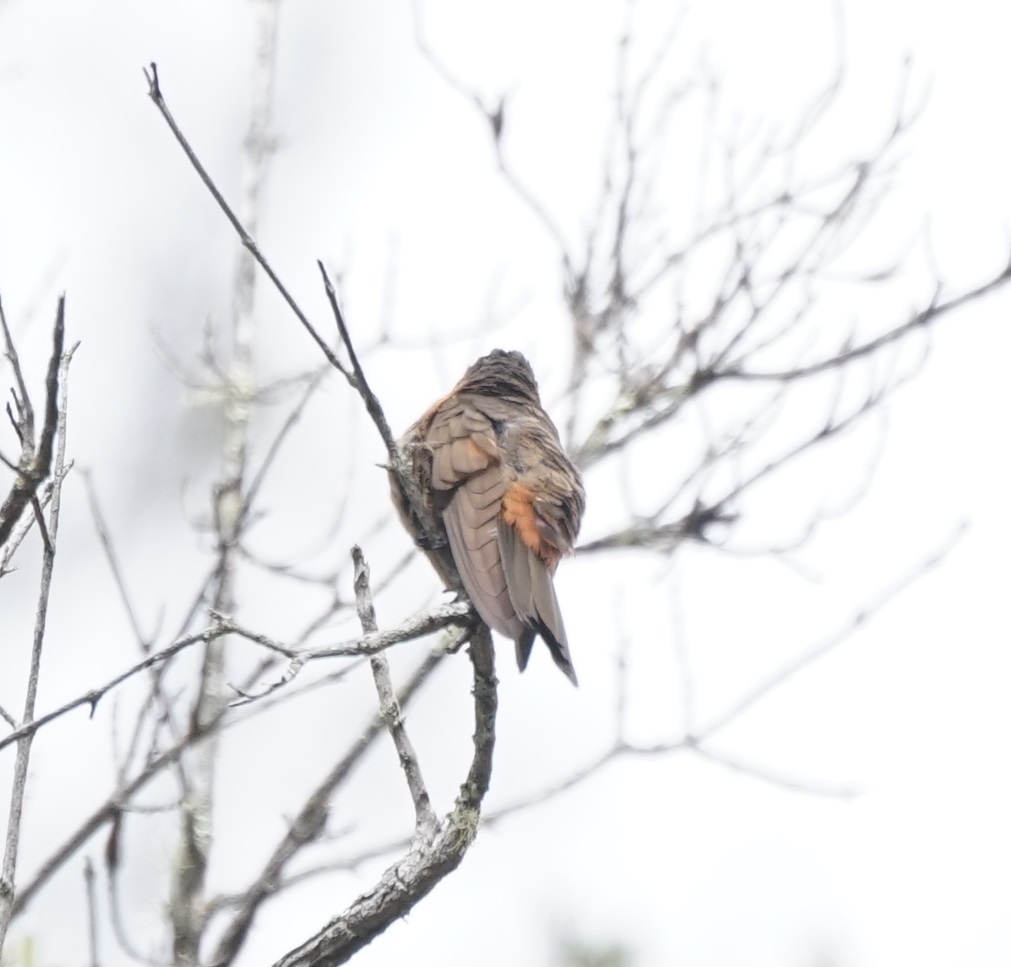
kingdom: Animalia
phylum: Chordata
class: Aves
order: Apodiformes
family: Trochilidae
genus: Aglaeactis
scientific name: Aglaeactis cupripennis
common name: Shining sunbeam
